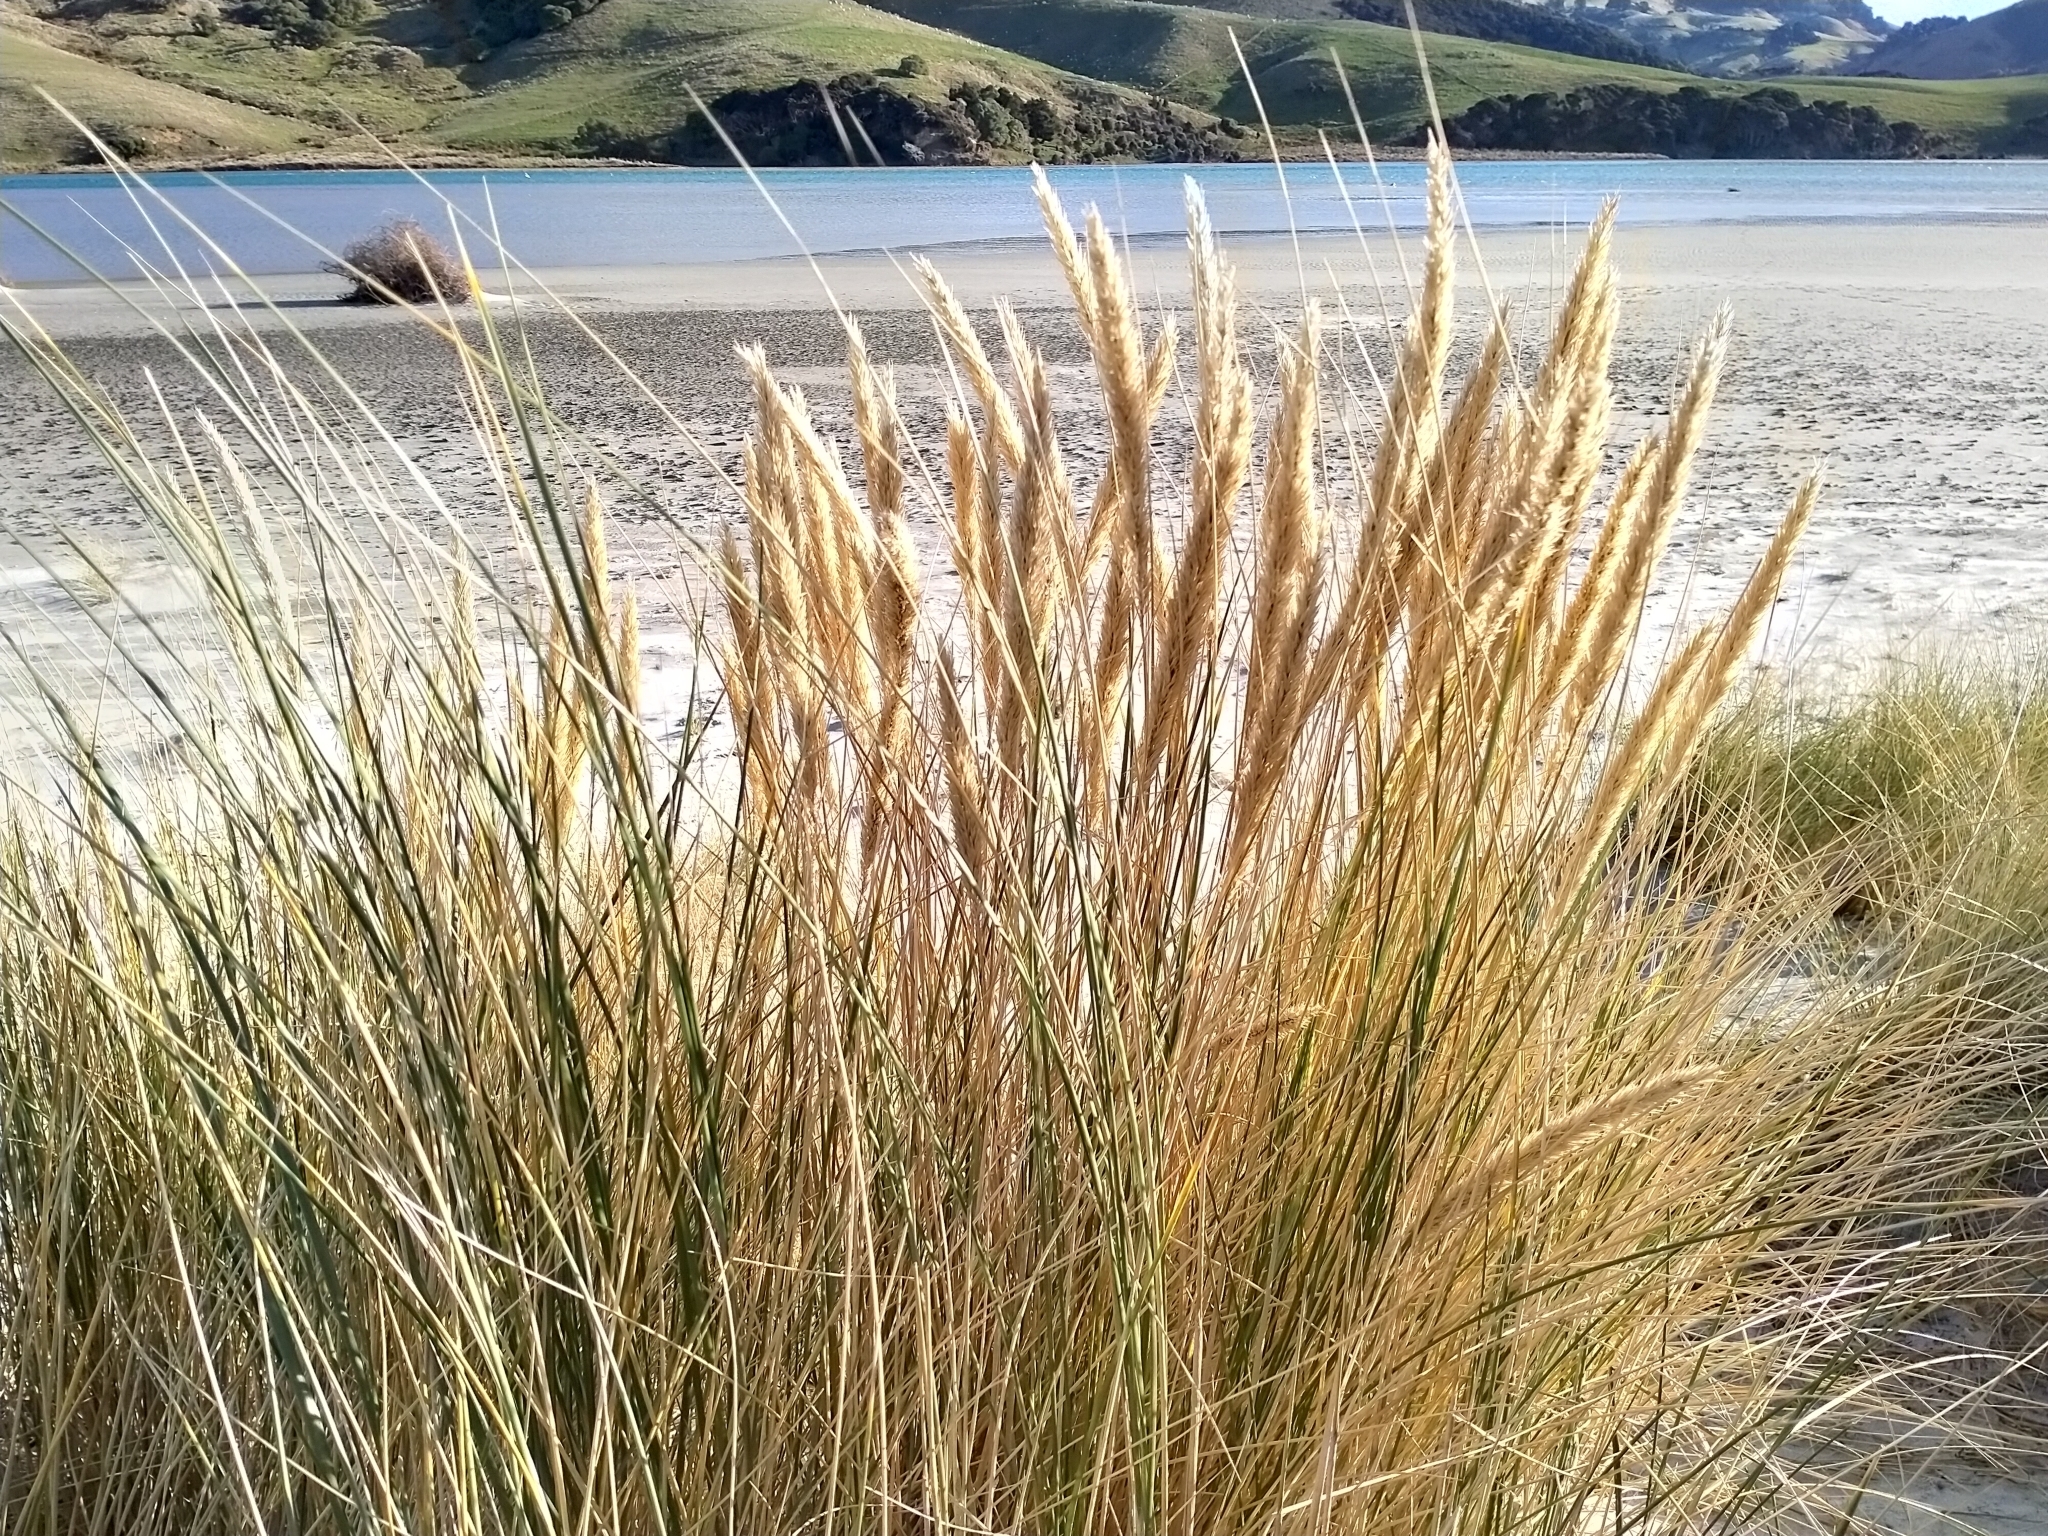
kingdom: Plantae
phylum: Tracheophyta
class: Liliopsida
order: Poales
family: Poaceae
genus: Calamagrostis
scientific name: Calamagrostis arenaria
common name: European beachgrass
